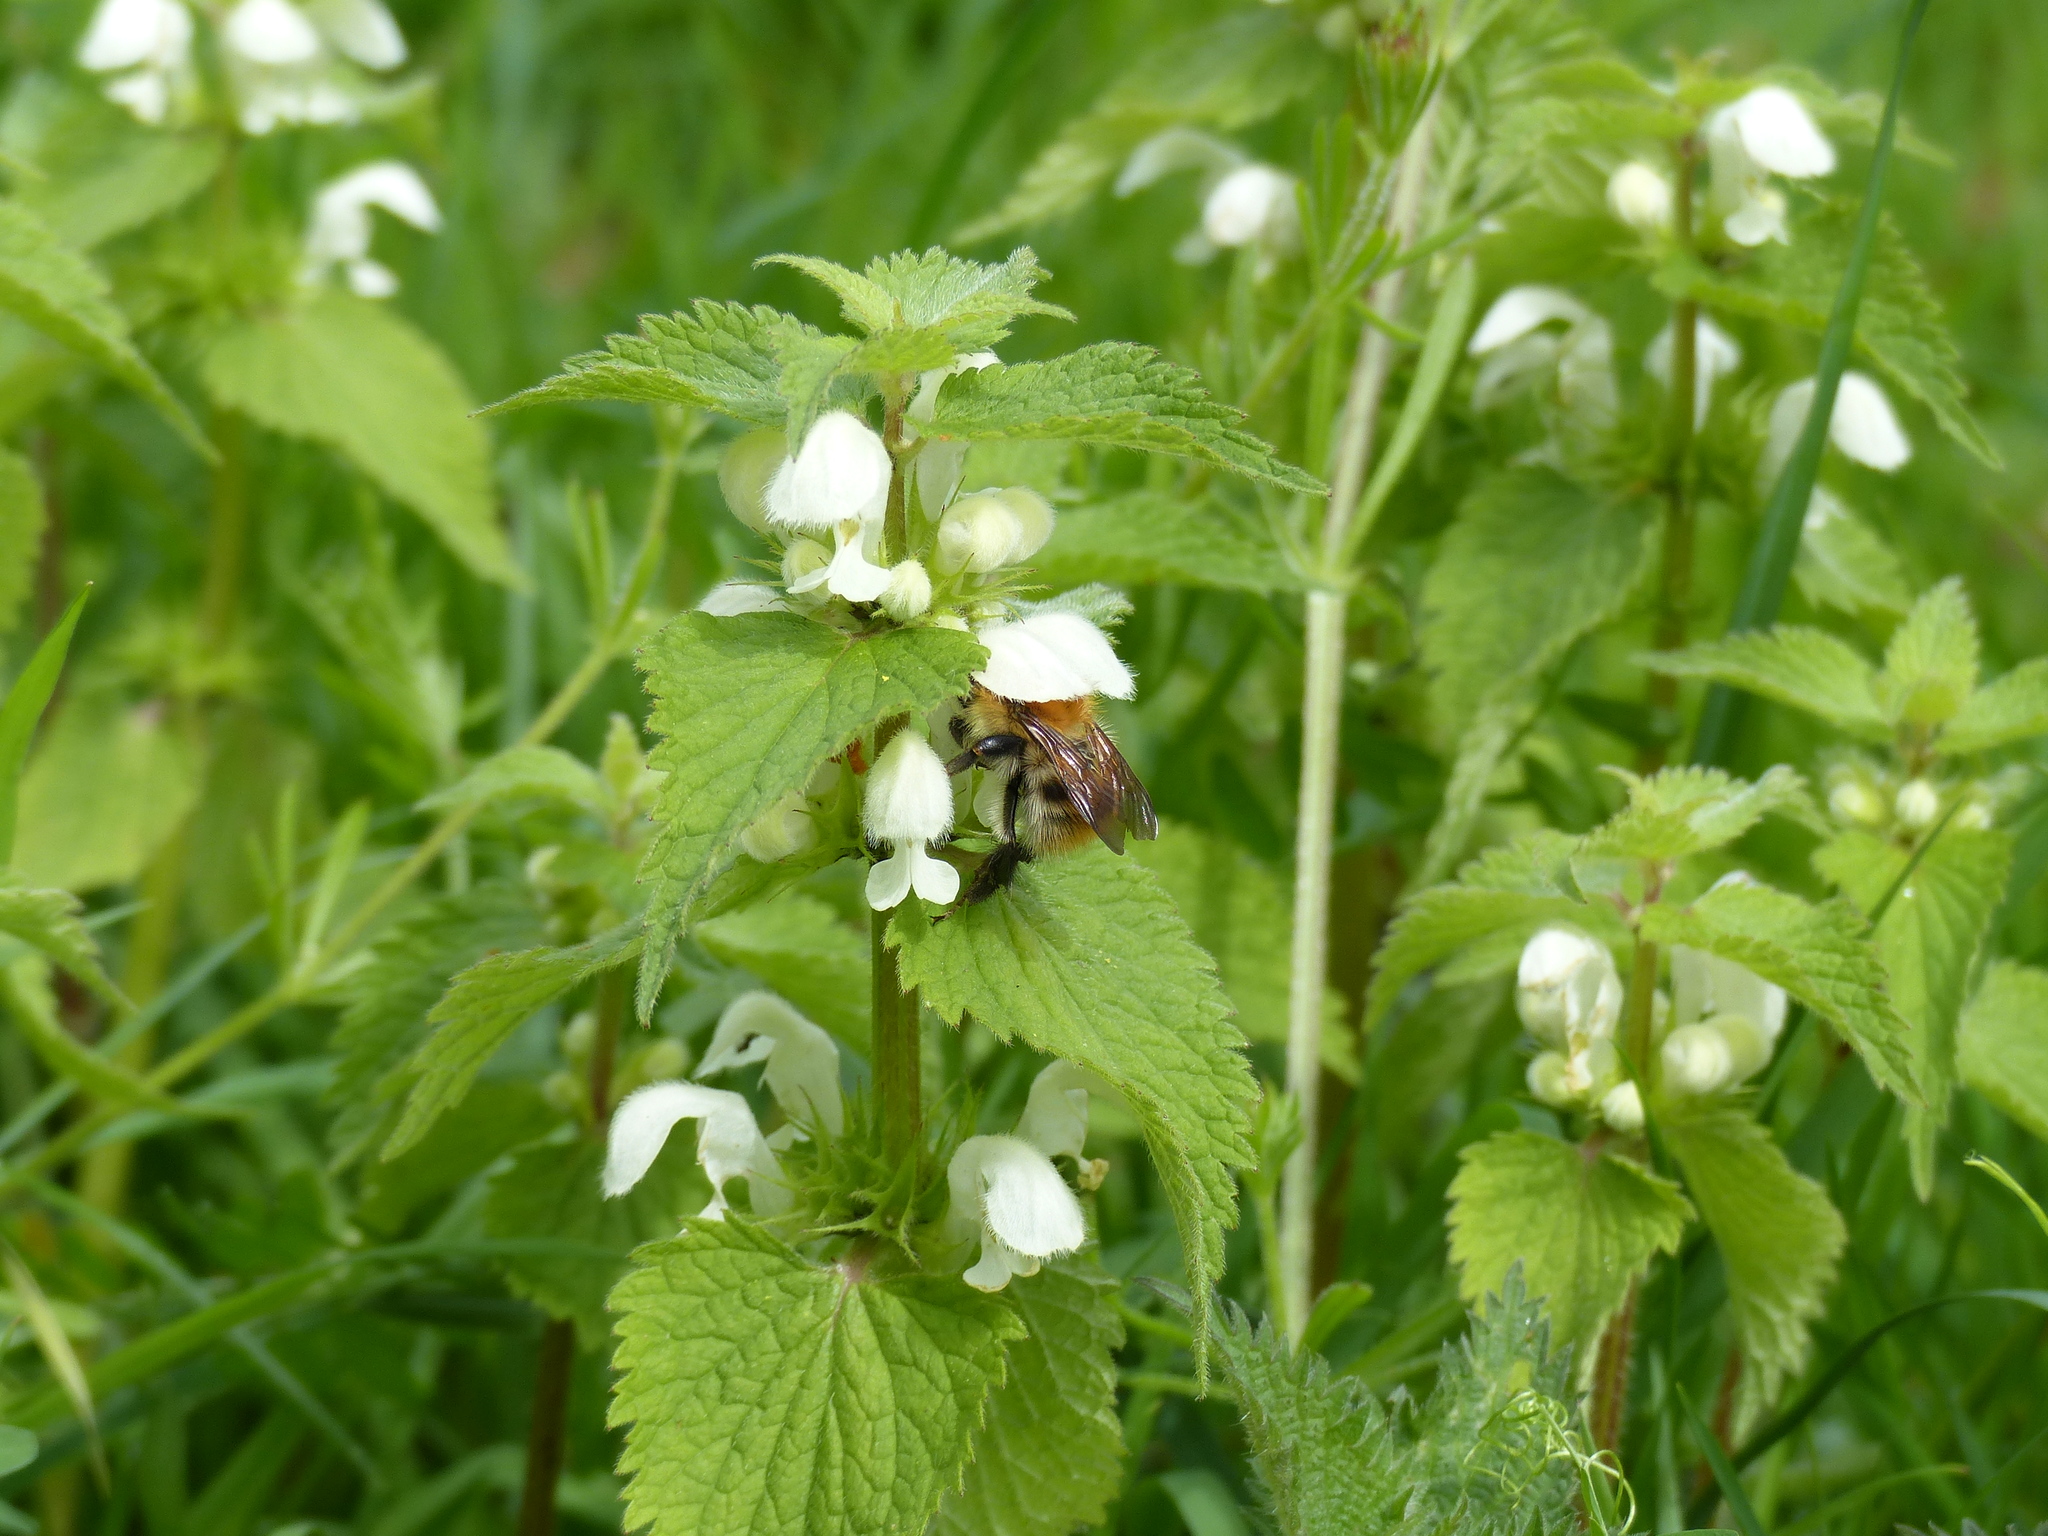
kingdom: Animalia
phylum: Arthropoda
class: Insecta
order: Hymenoptera
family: Apidae
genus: Bombus
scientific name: Bombus pascuorum
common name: Common carder bee
